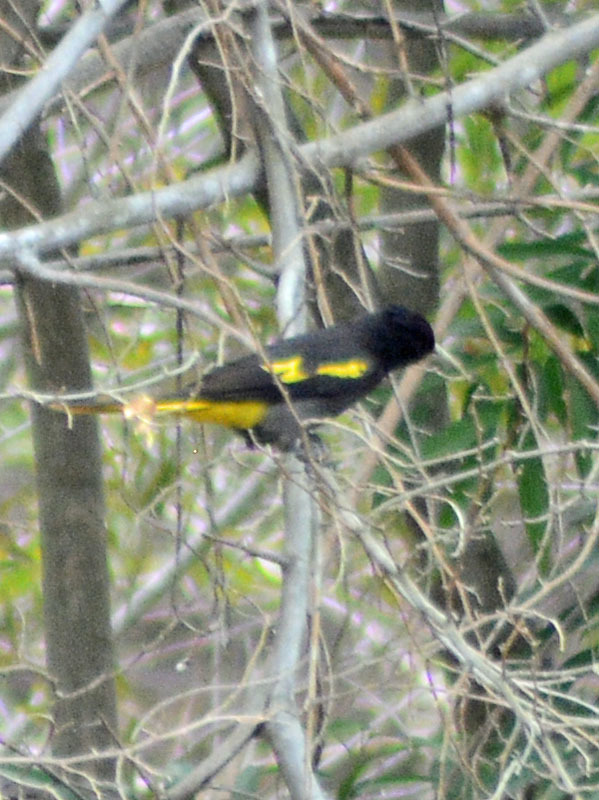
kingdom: Animalia
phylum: Chordata
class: Aves
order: Passeriformes
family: Icteridae
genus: Cacicus
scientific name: Cacicus melanicterus
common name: Yellow-winged cacique
